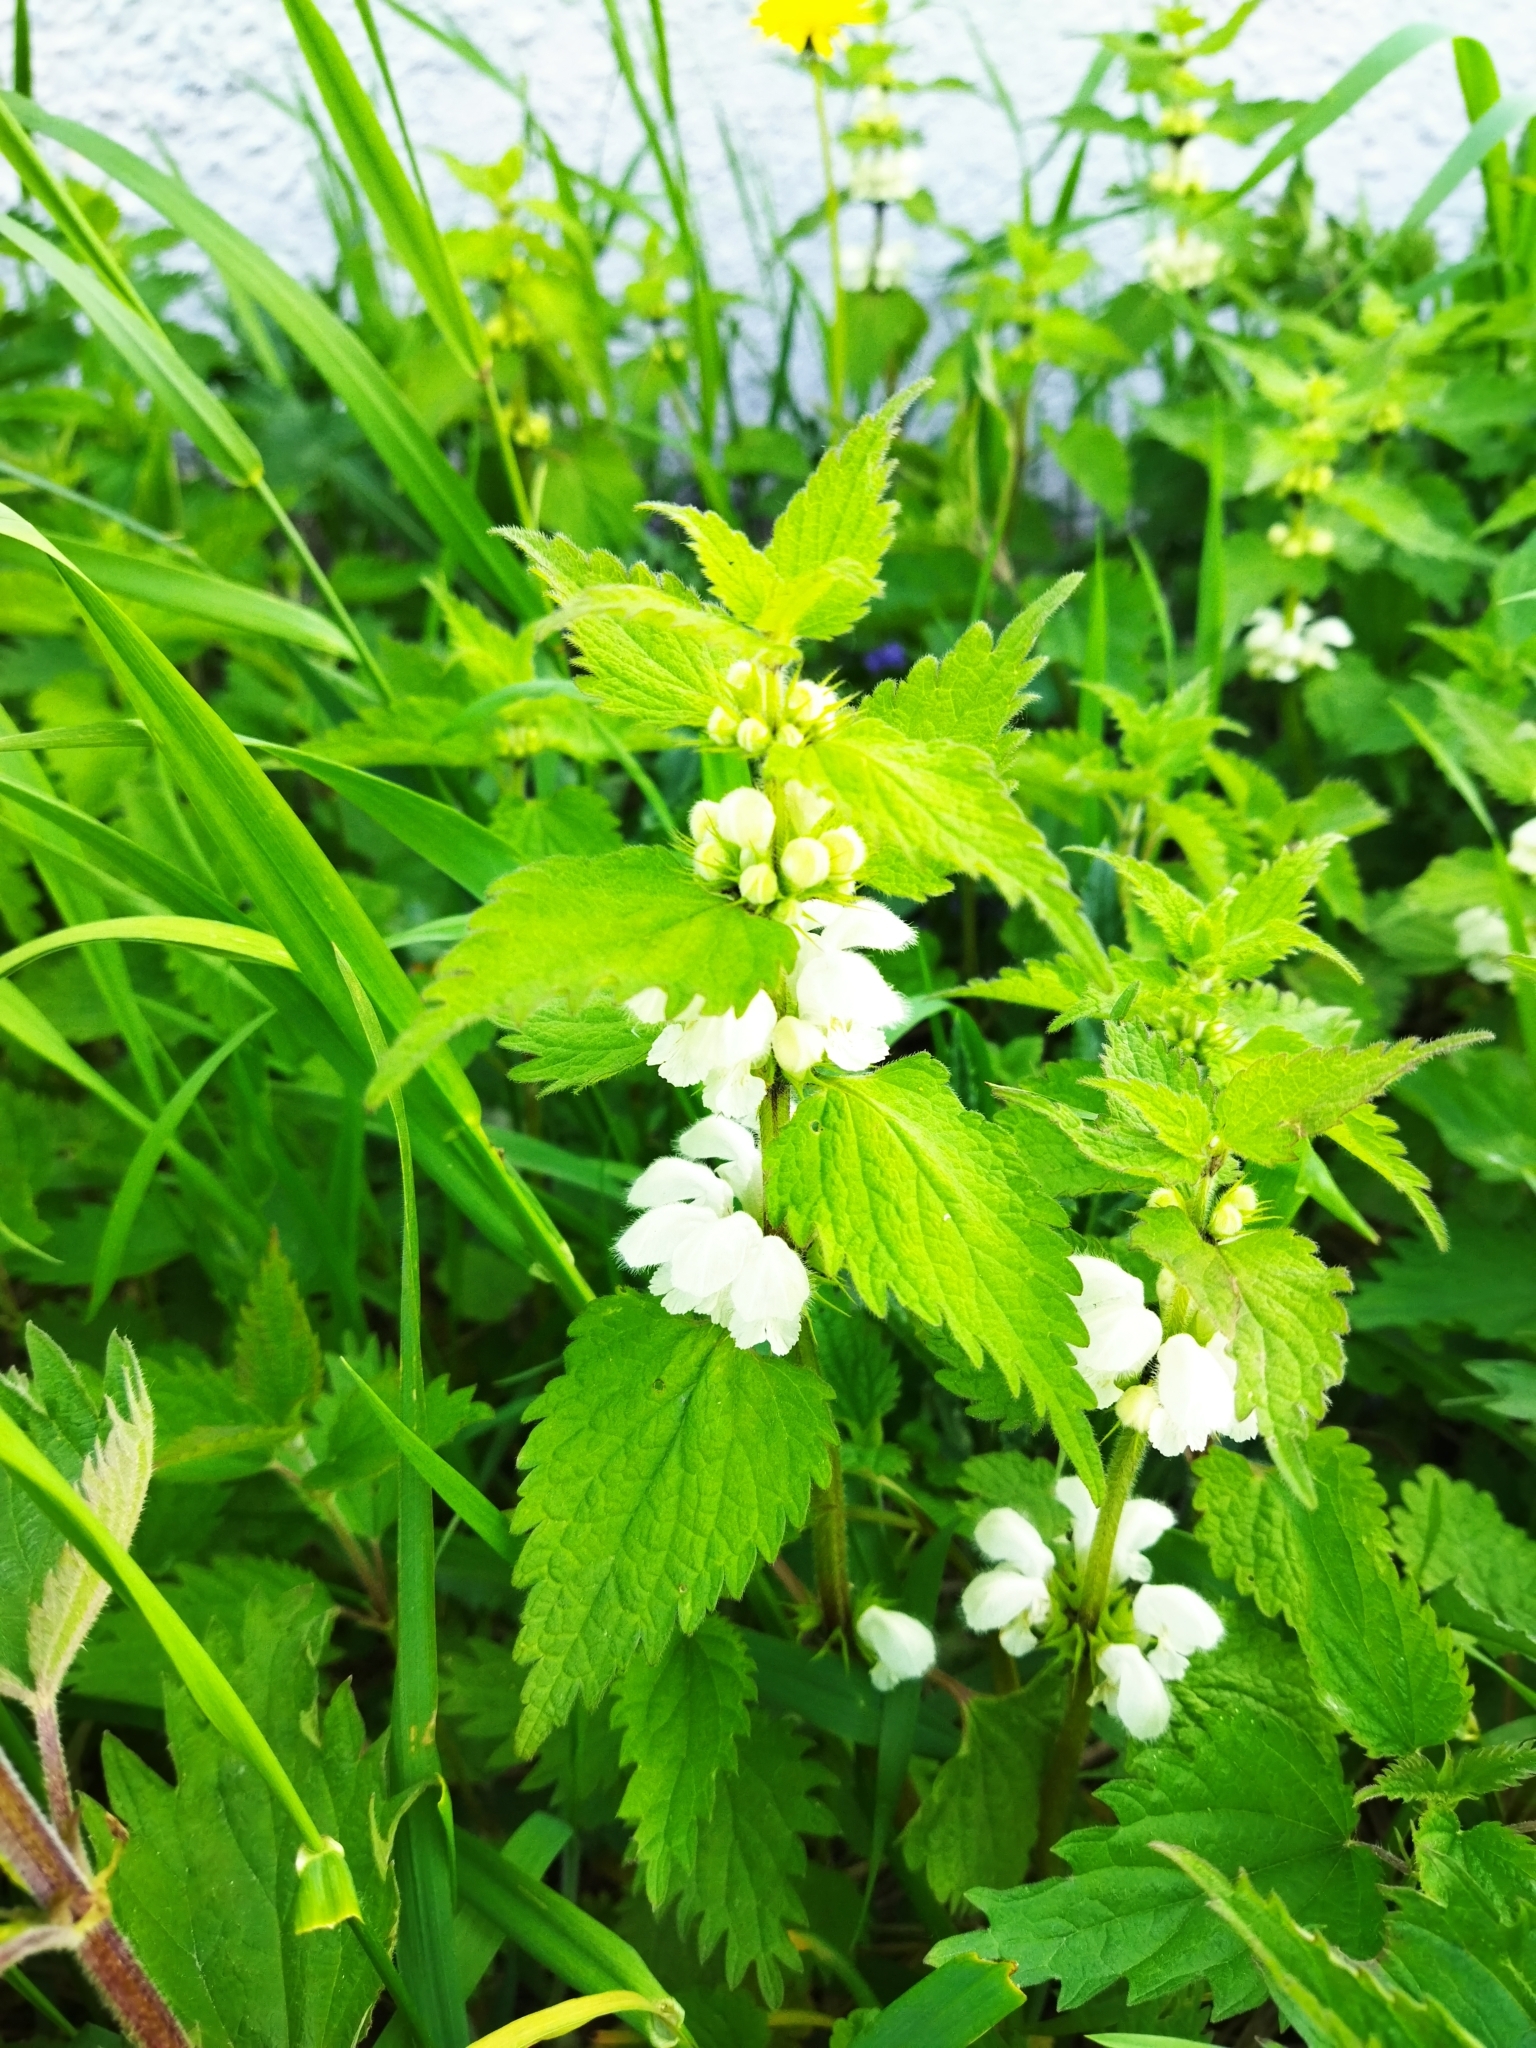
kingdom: Plantae
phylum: Tracheophyta
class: Magnoliopsida
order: Lamiales
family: Lamiaceae
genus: Lamium
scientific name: Lamium album
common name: White dead-nettle
